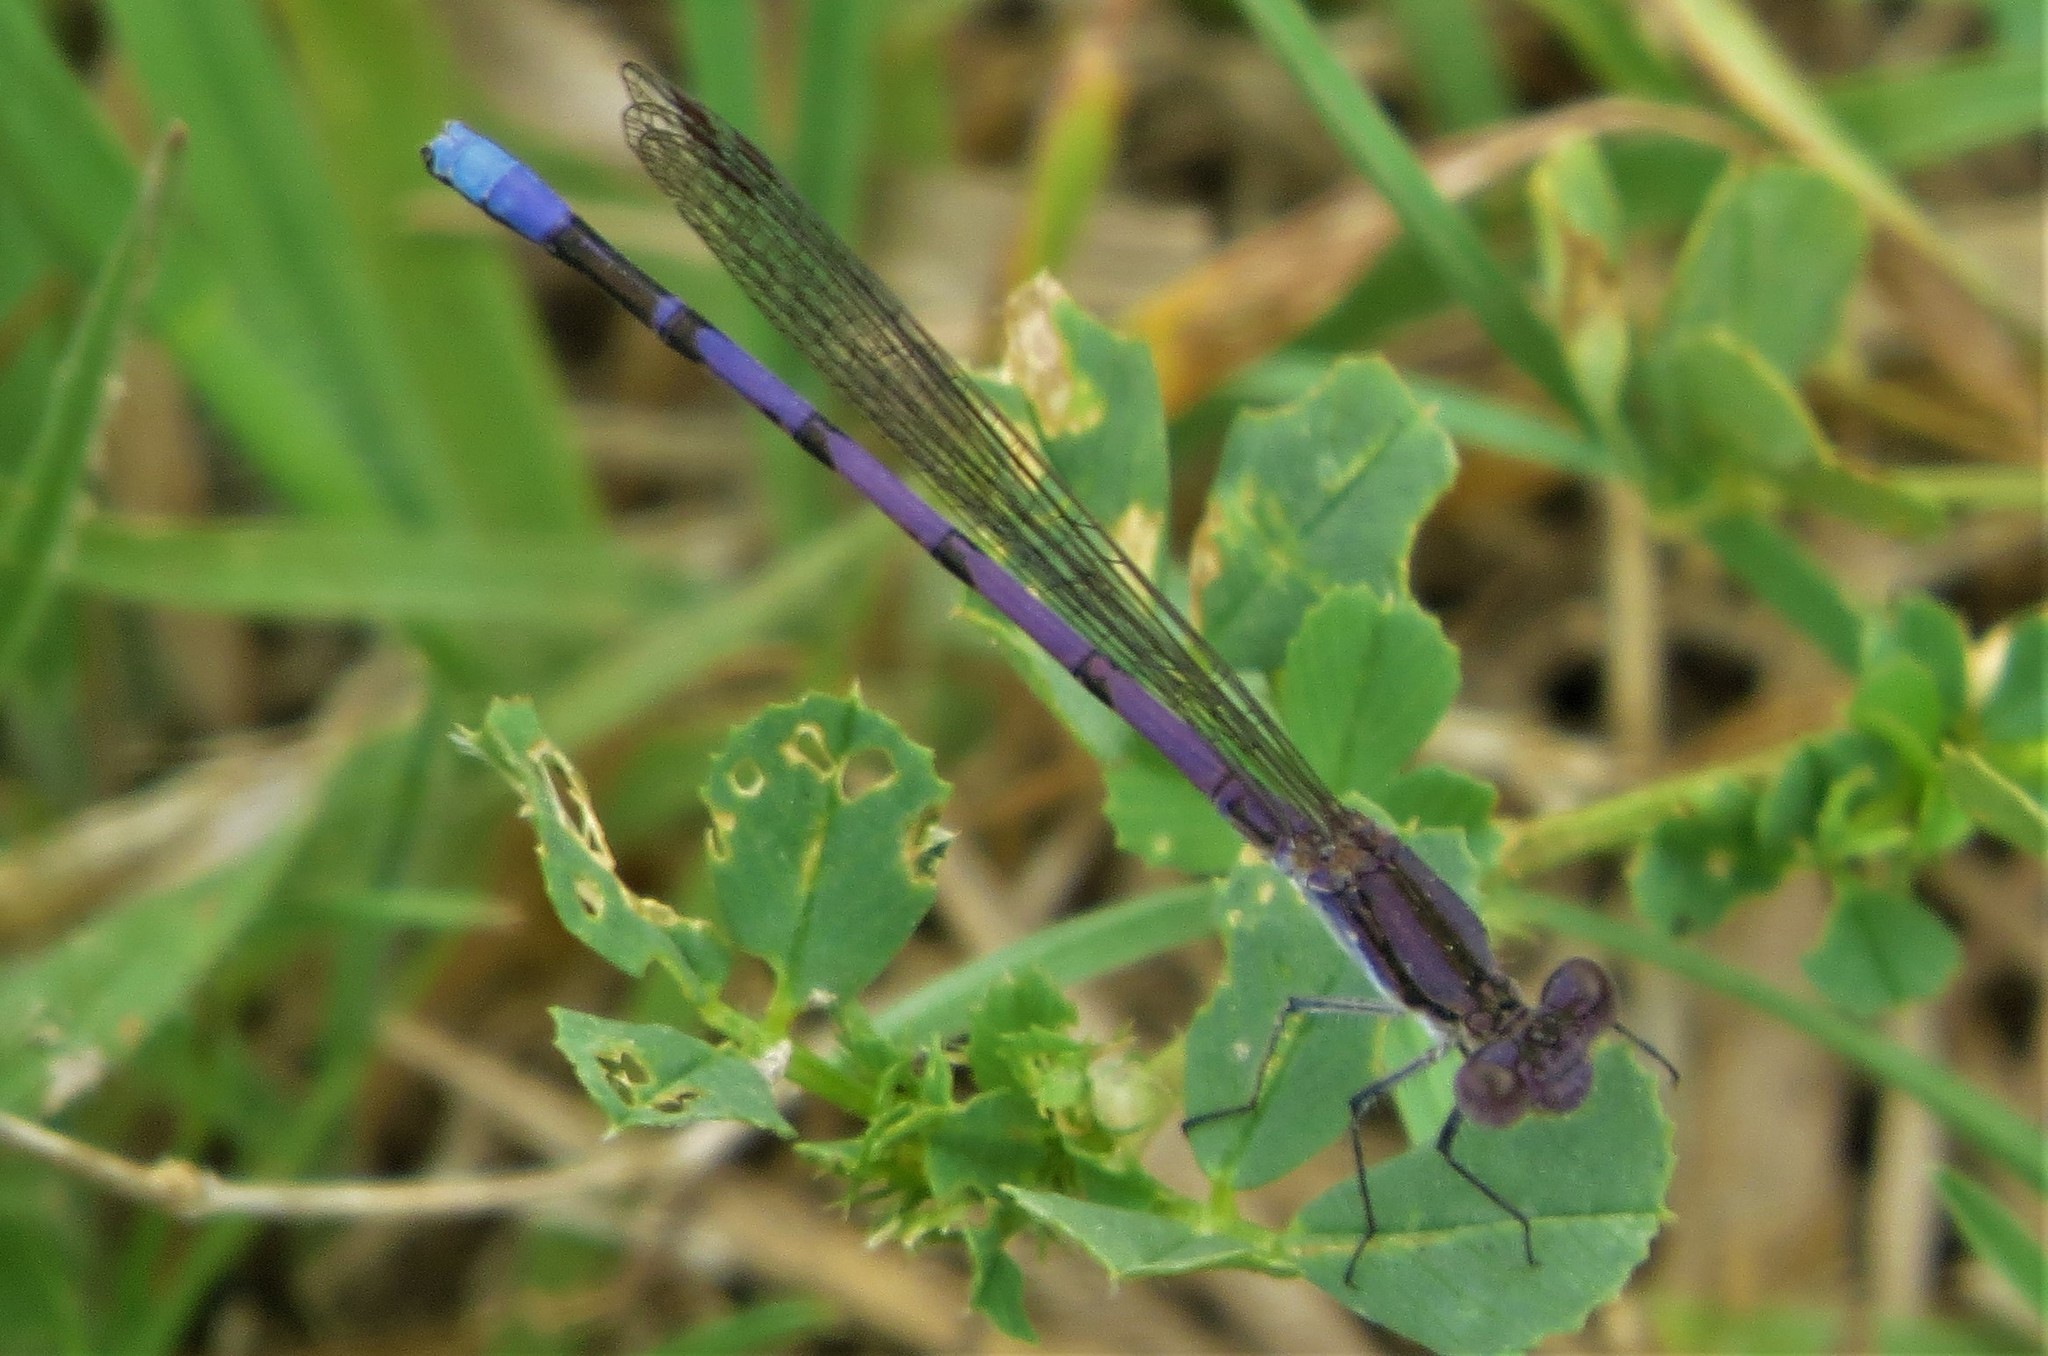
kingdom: Animalia
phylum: Arthropoda
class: Insecta
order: Odonata
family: Coenagrionidae
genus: Argia
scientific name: Argia fumipennis
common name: Variable dancer
